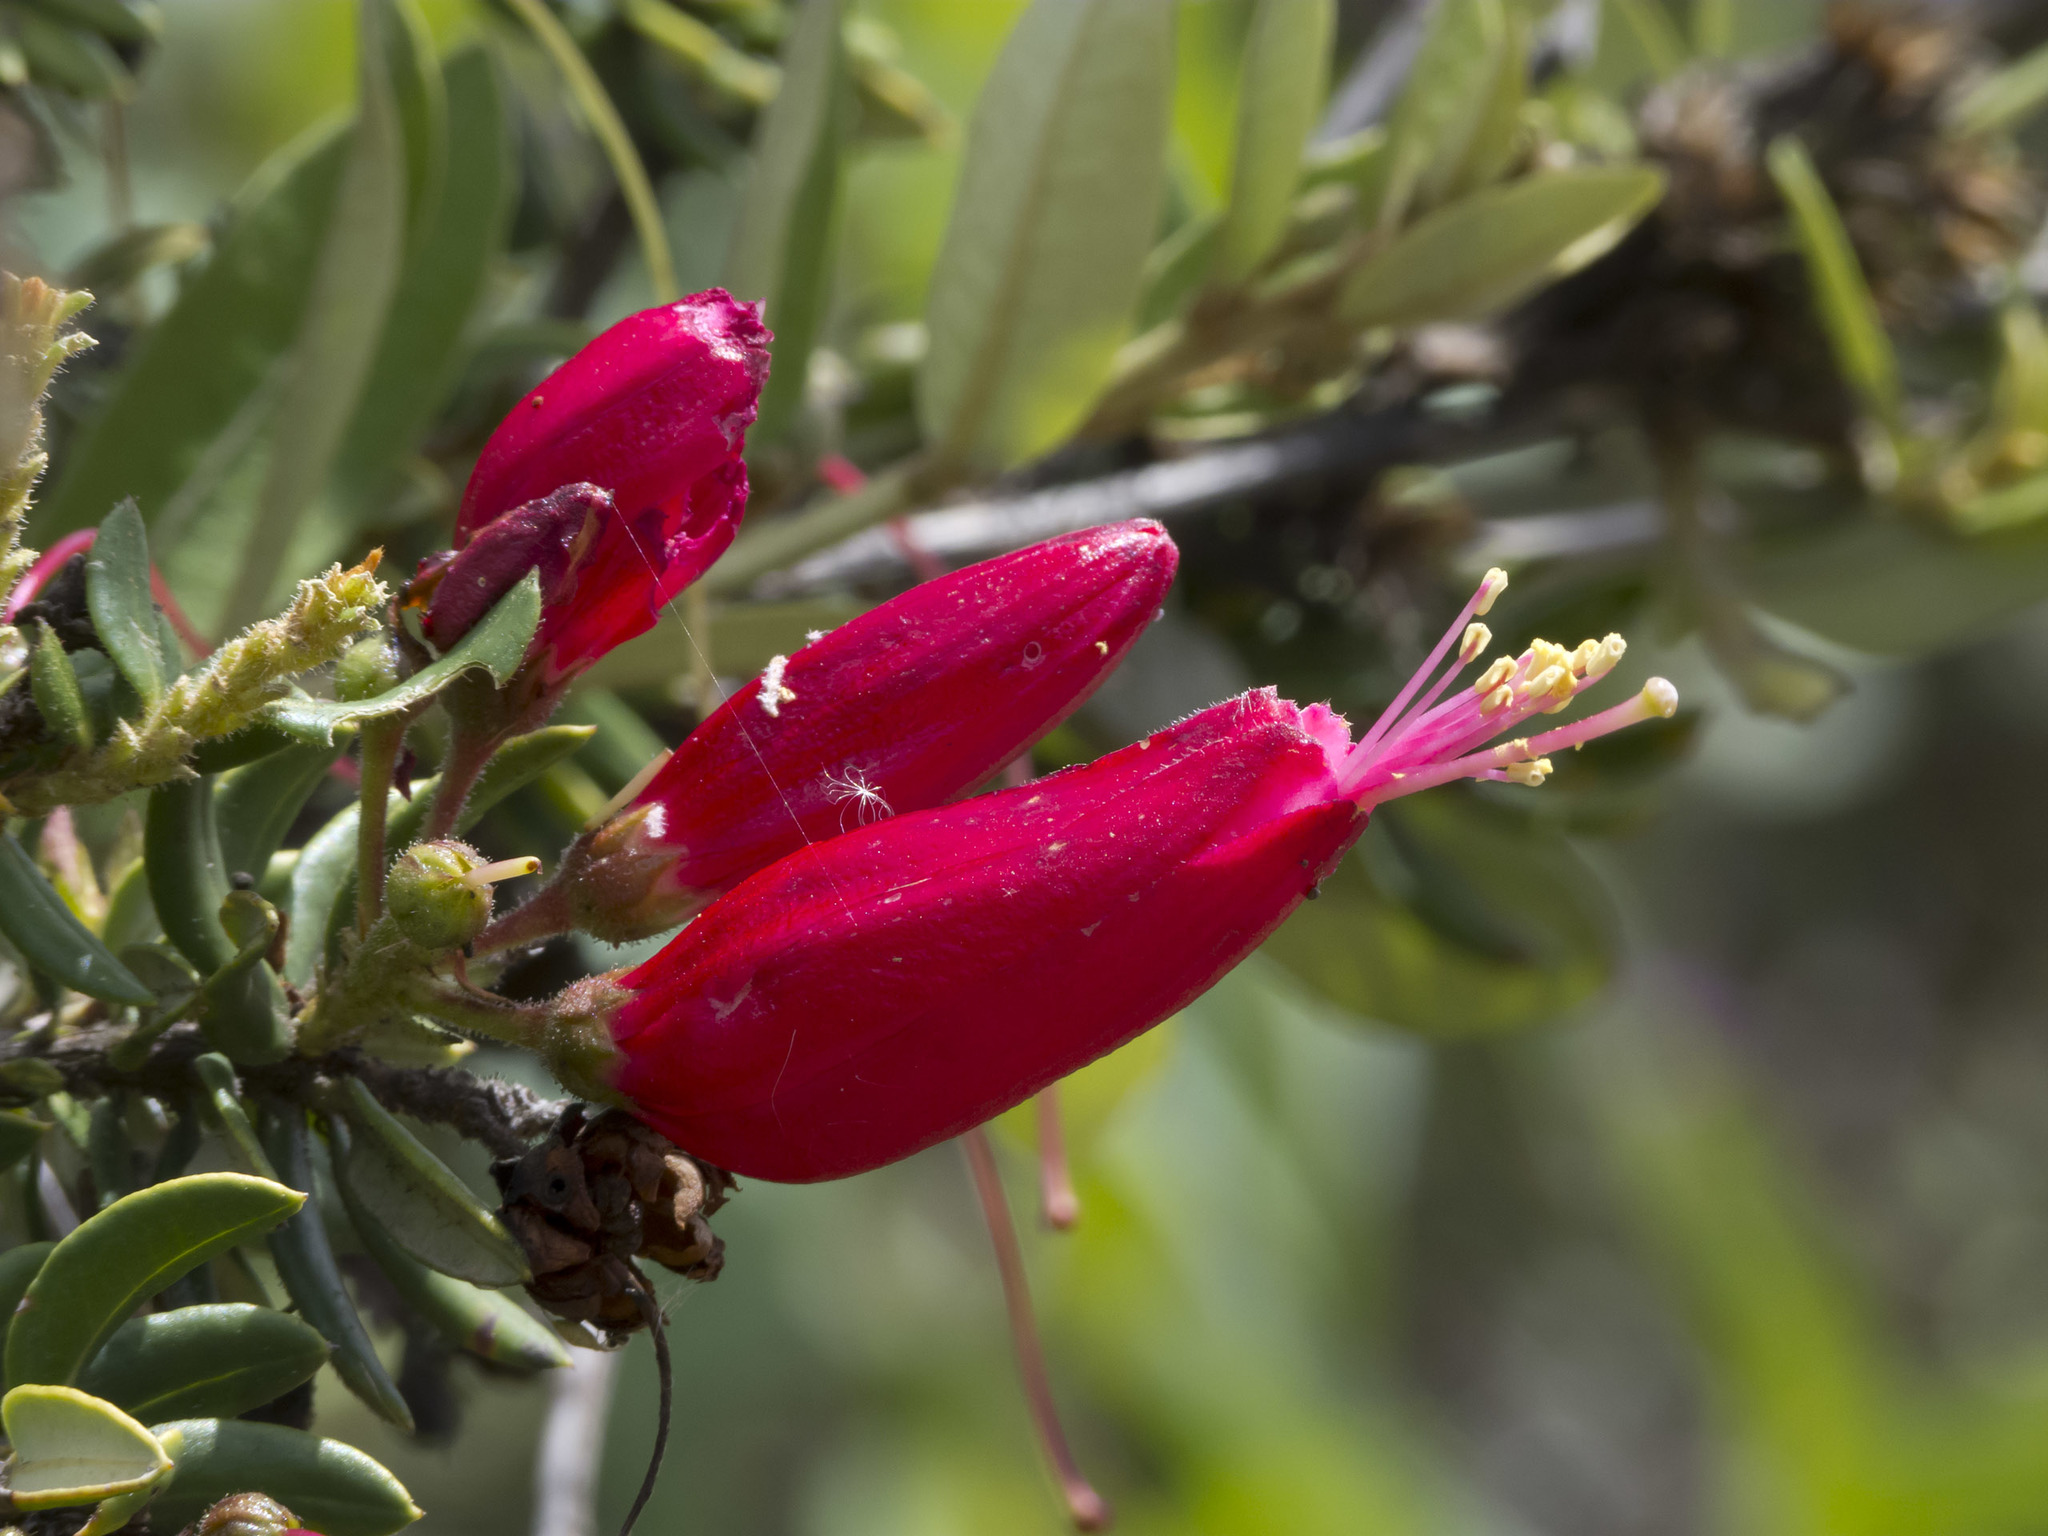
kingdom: Plantae
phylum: Tracheophyta
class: Magnoliopsida
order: Ericales
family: Ericaceae
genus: Bejaria
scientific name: Bejaria resinosa
